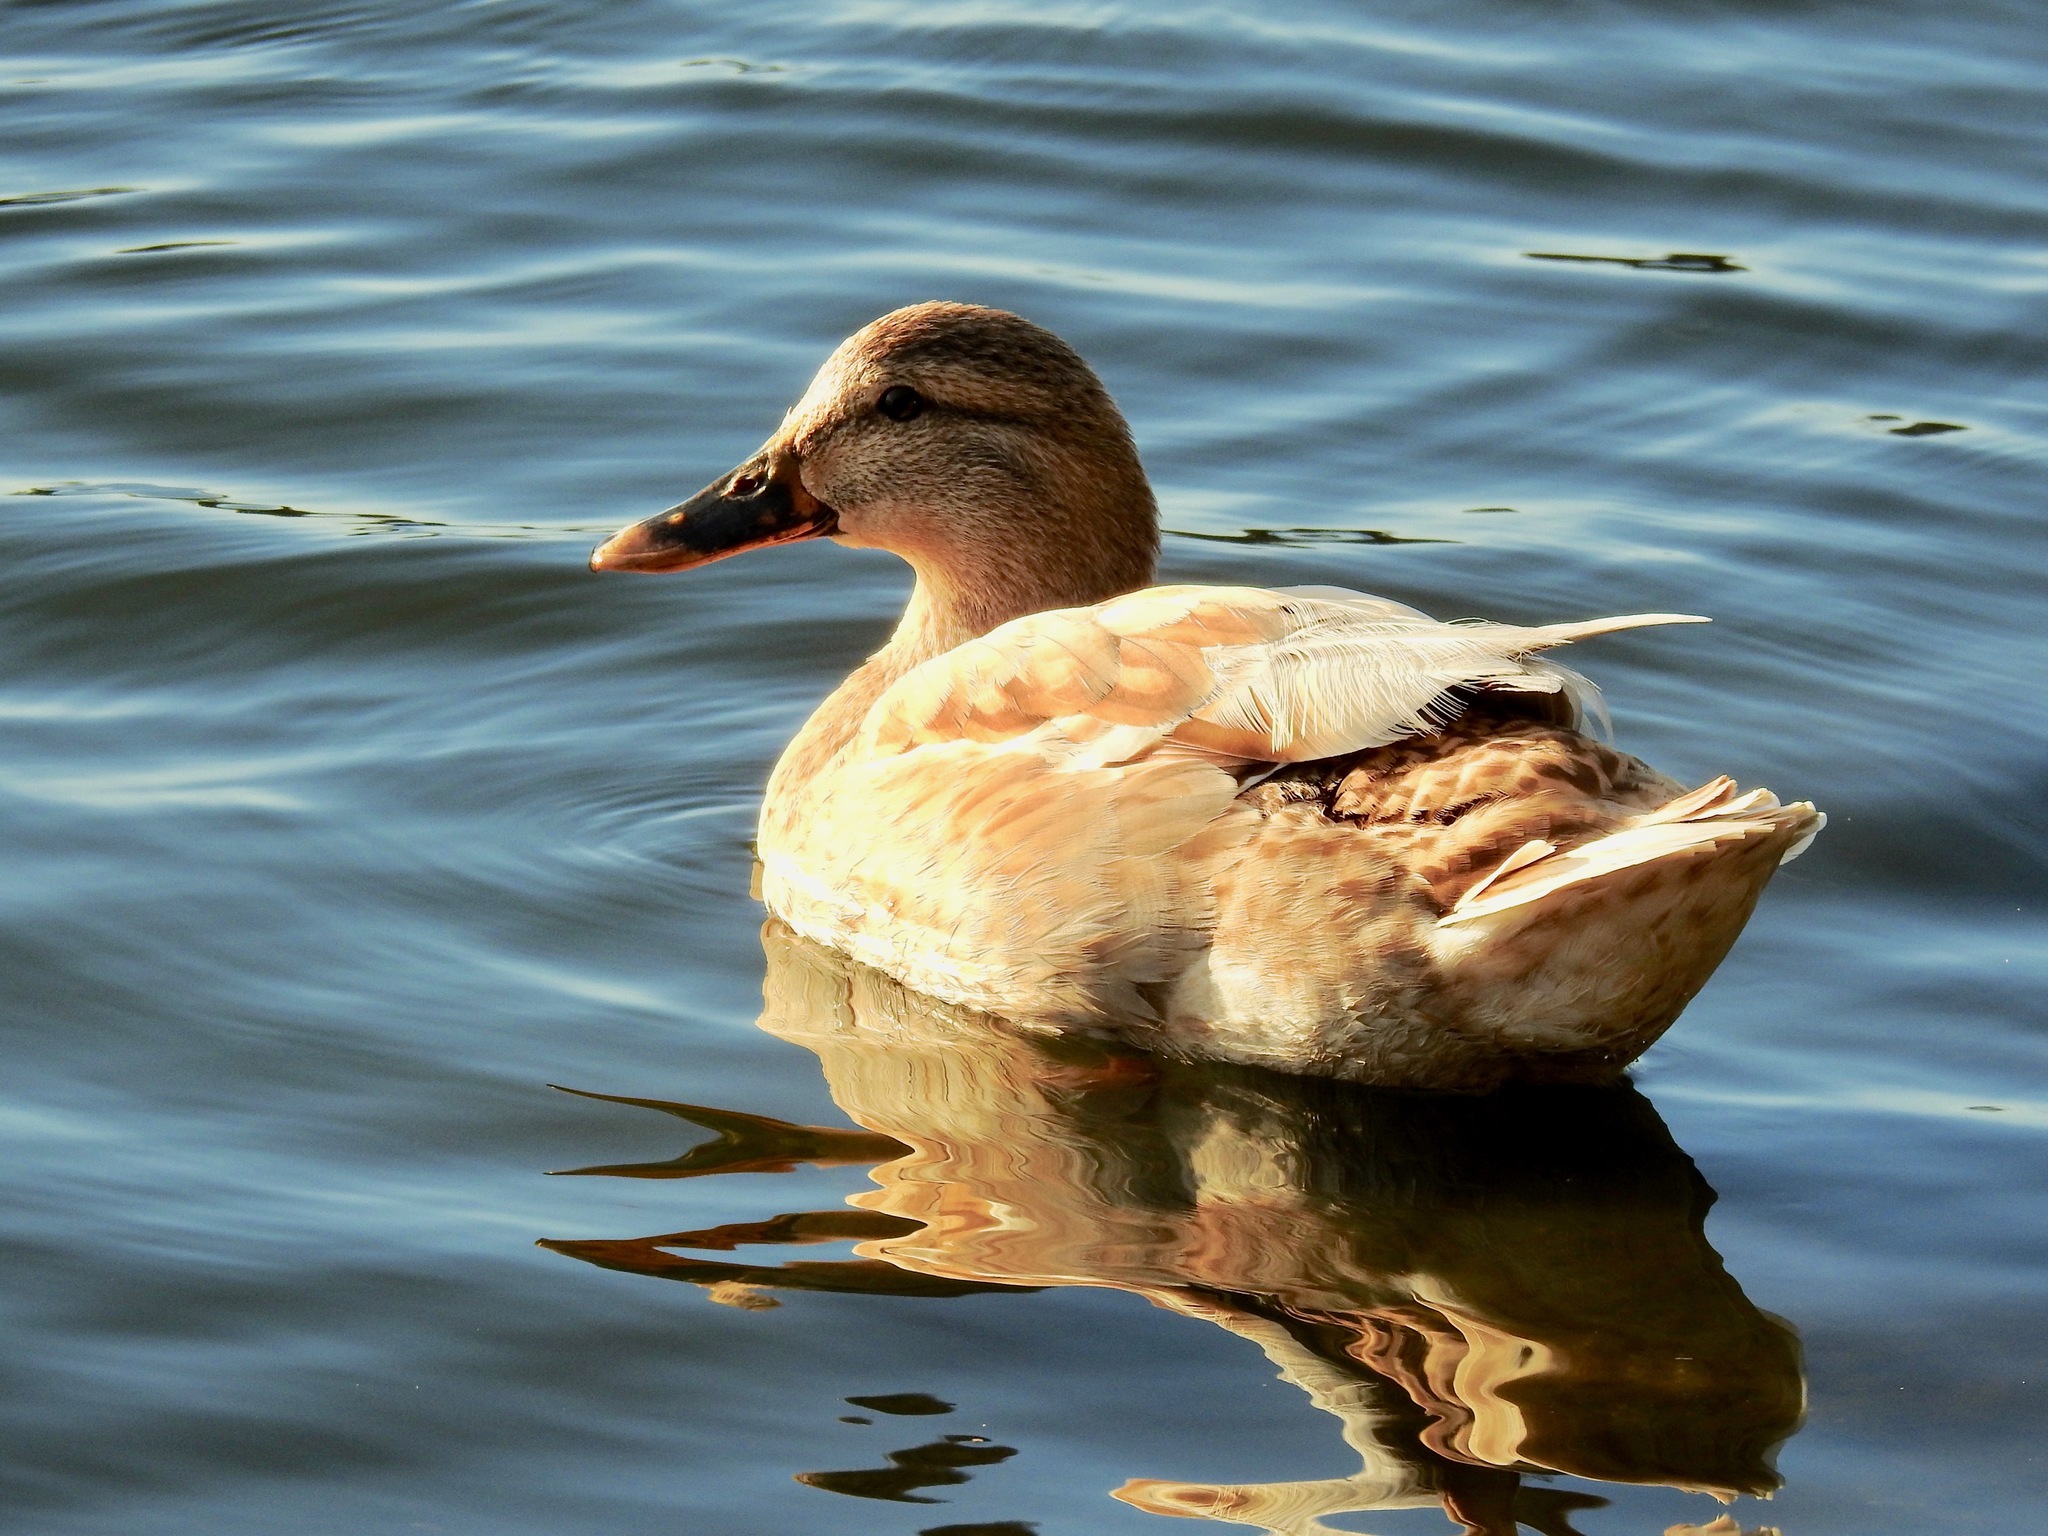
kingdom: Animalia
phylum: Chordata
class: Aves
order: Anseriformes
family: Anatidae
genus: Anas
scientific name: Anas platyrhynchos
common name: Mallard
